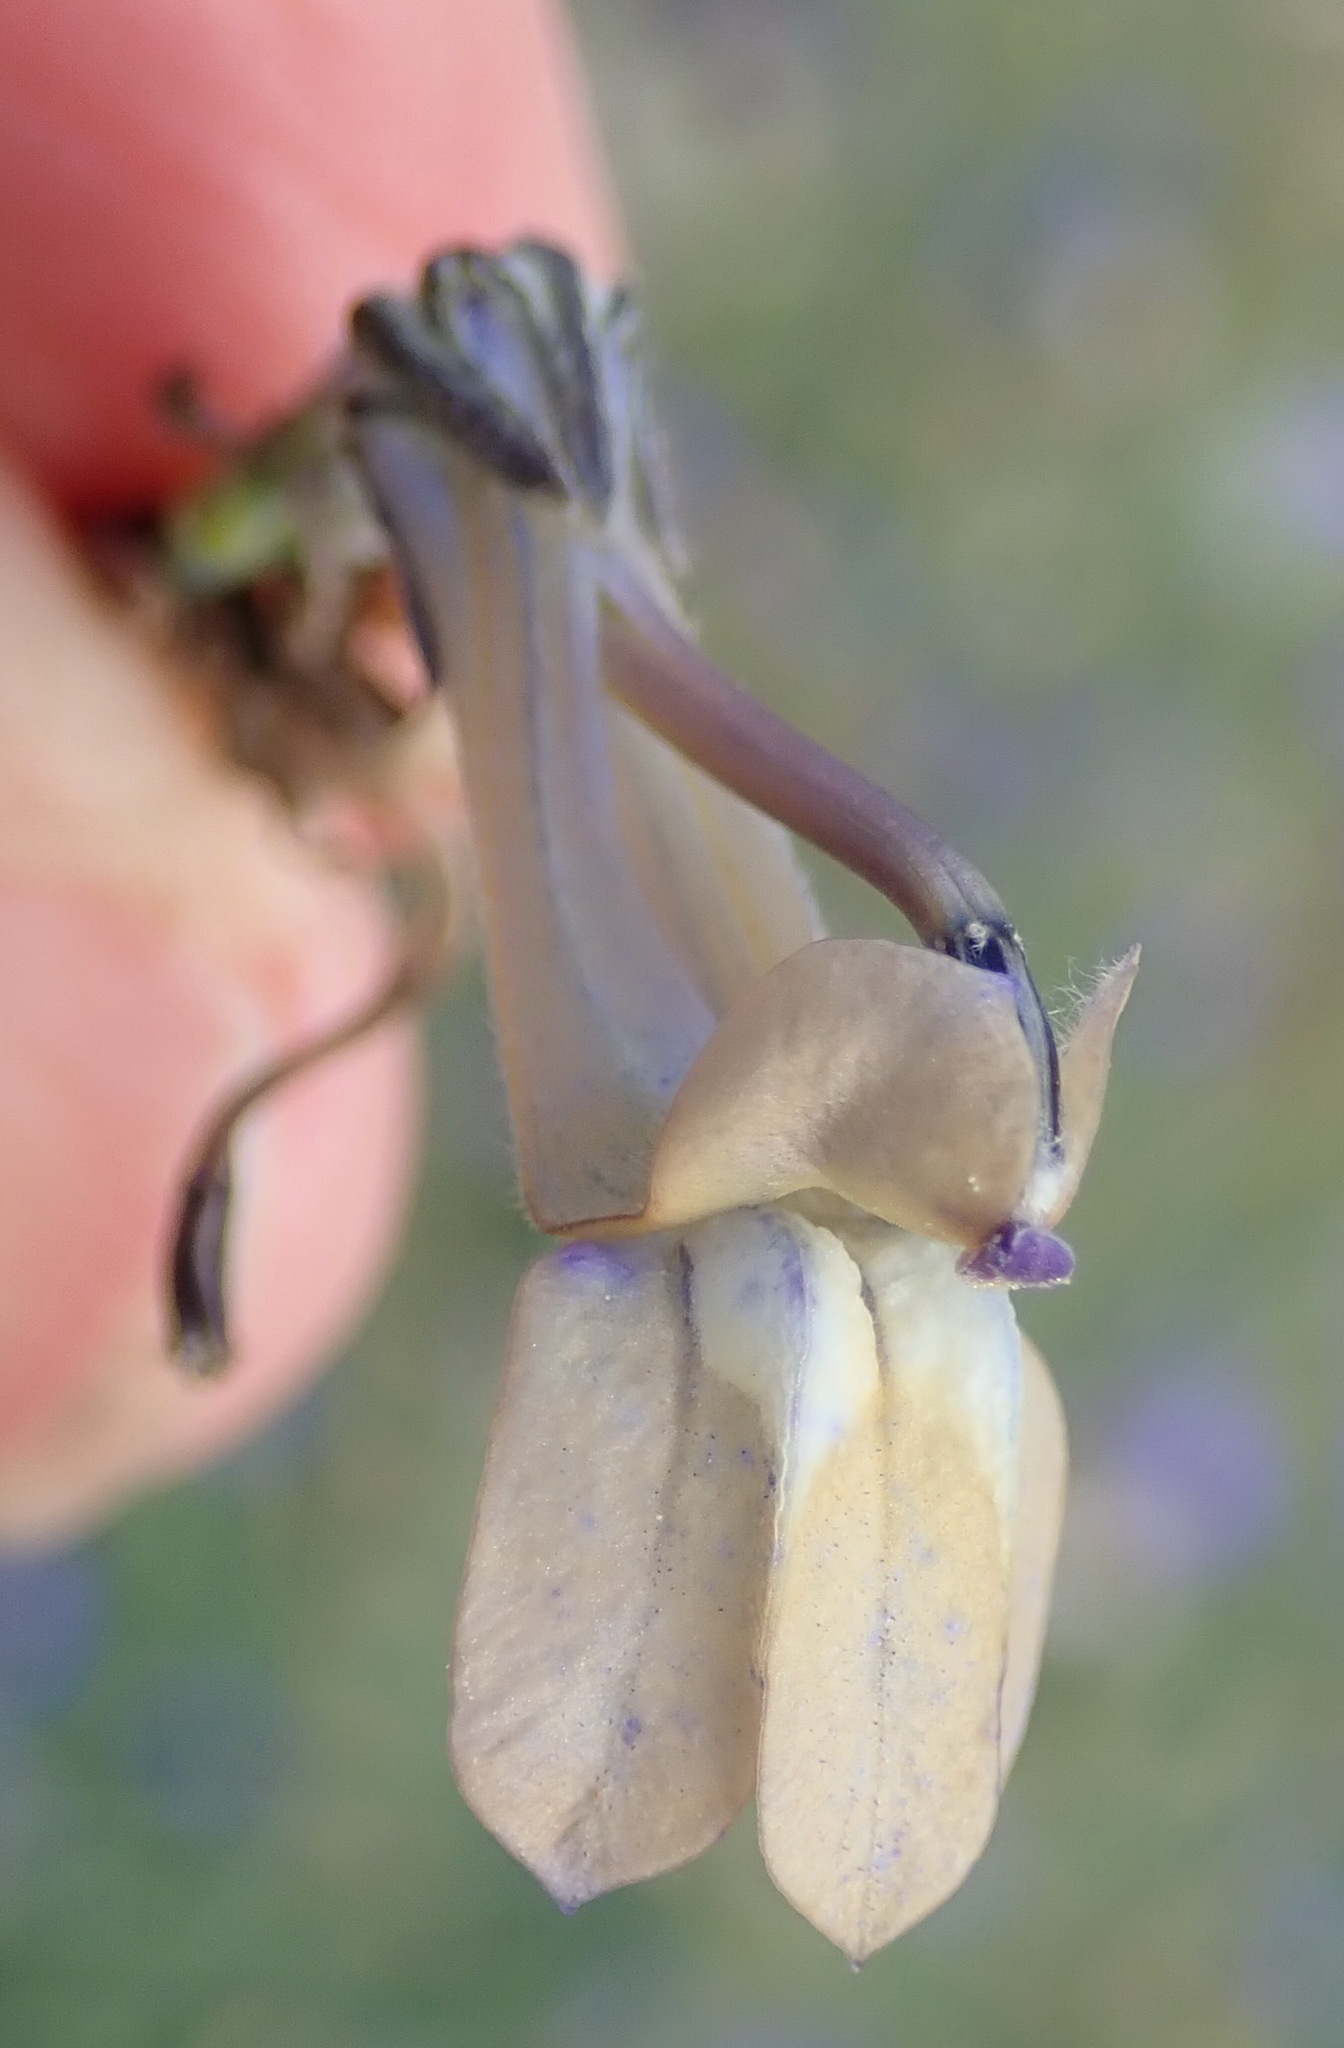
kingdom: Plantae
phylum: Tracheophyta
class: Magnoliopsida
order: Asterales
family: Campanulaceae
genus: Lobelia
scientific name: Lobelia linearis
